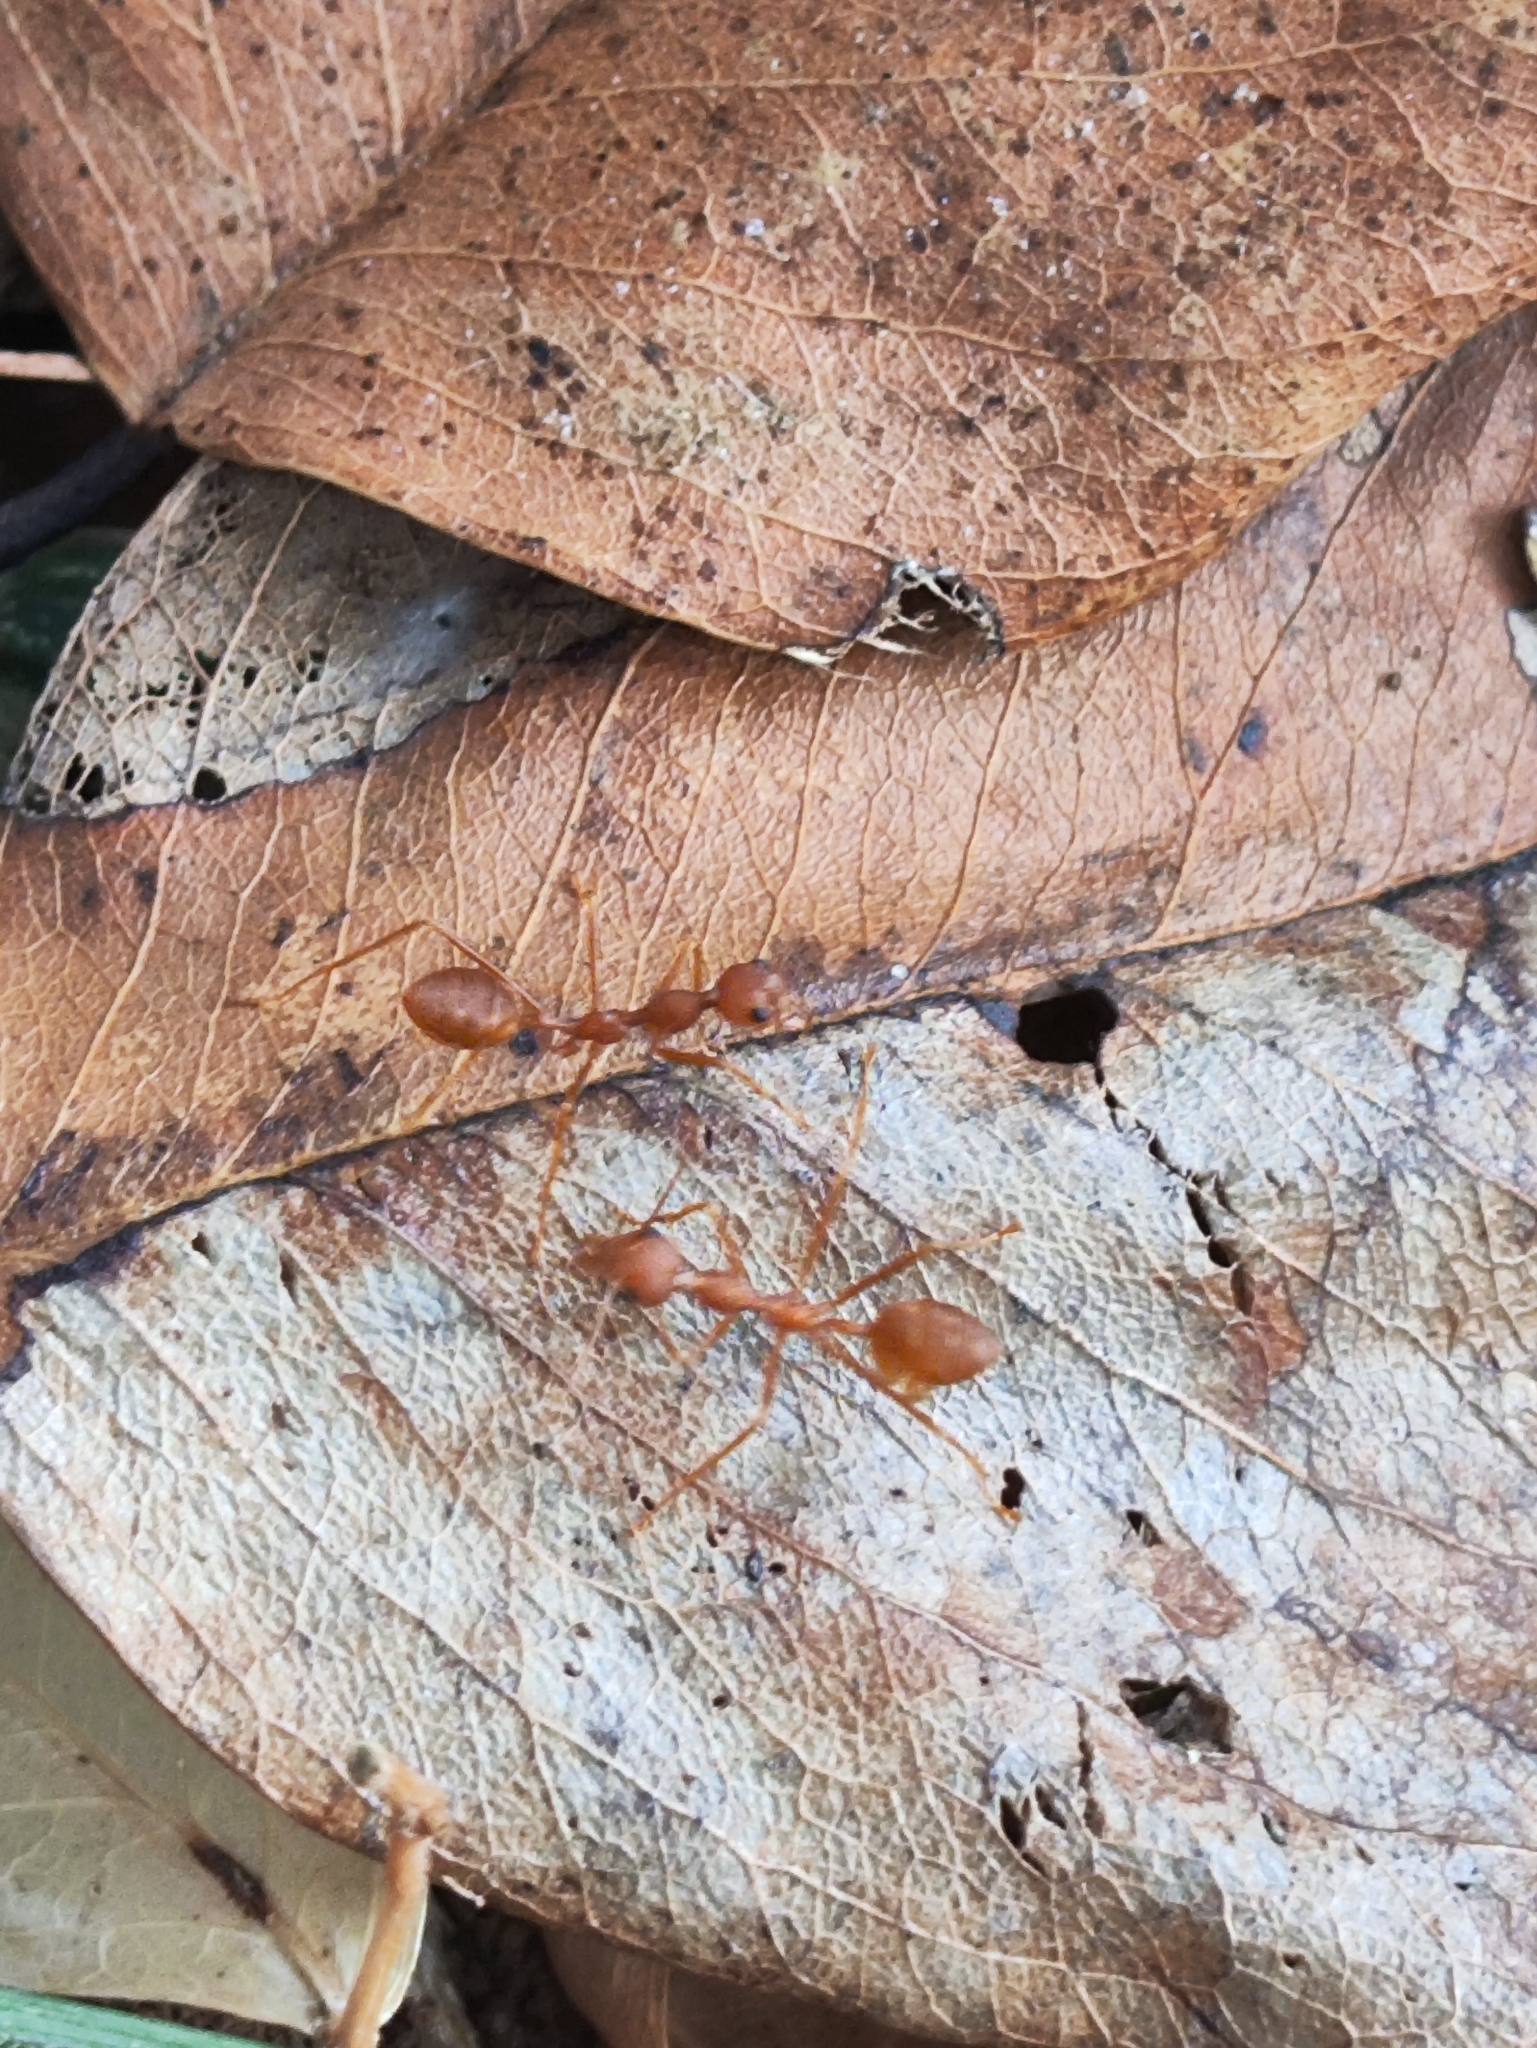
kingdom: Animalia
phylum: Arthropoda
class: Insecta
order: Hymenoptera
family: Formicidae
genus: Oecophylla
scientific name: Oecophylla smaragdina
